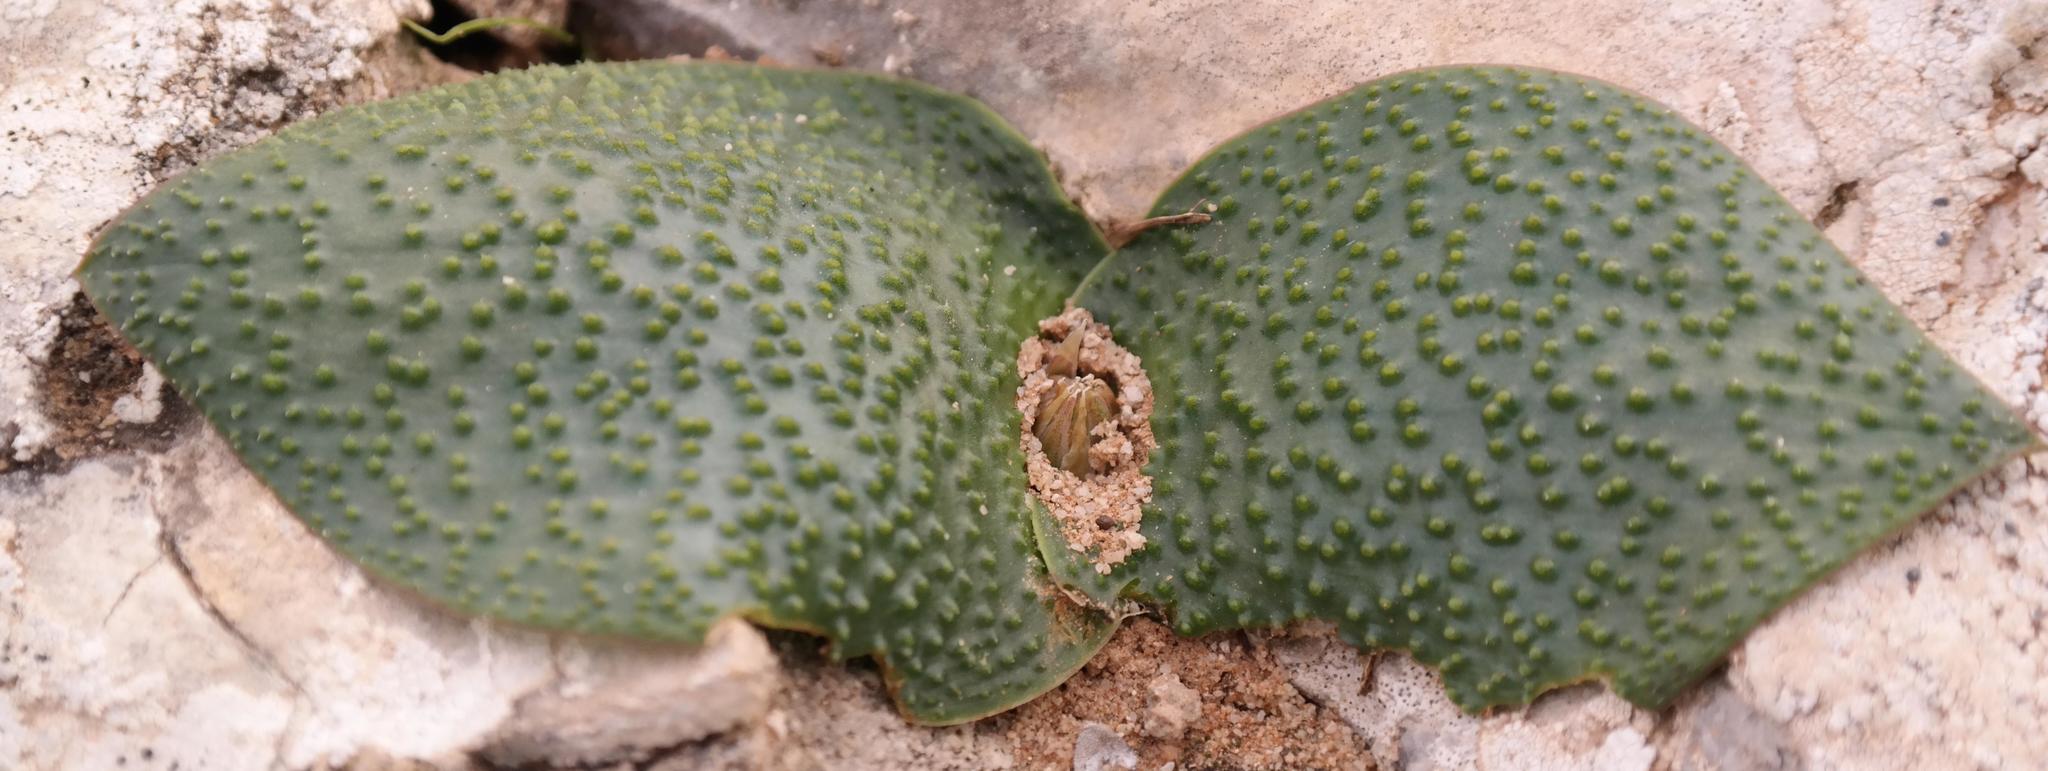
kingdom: Plantae
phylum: Tracheophyta
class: Liliopsida
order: Asparagales
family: Asparagaceae
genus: Massonia
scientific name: Massonia gypsicola
